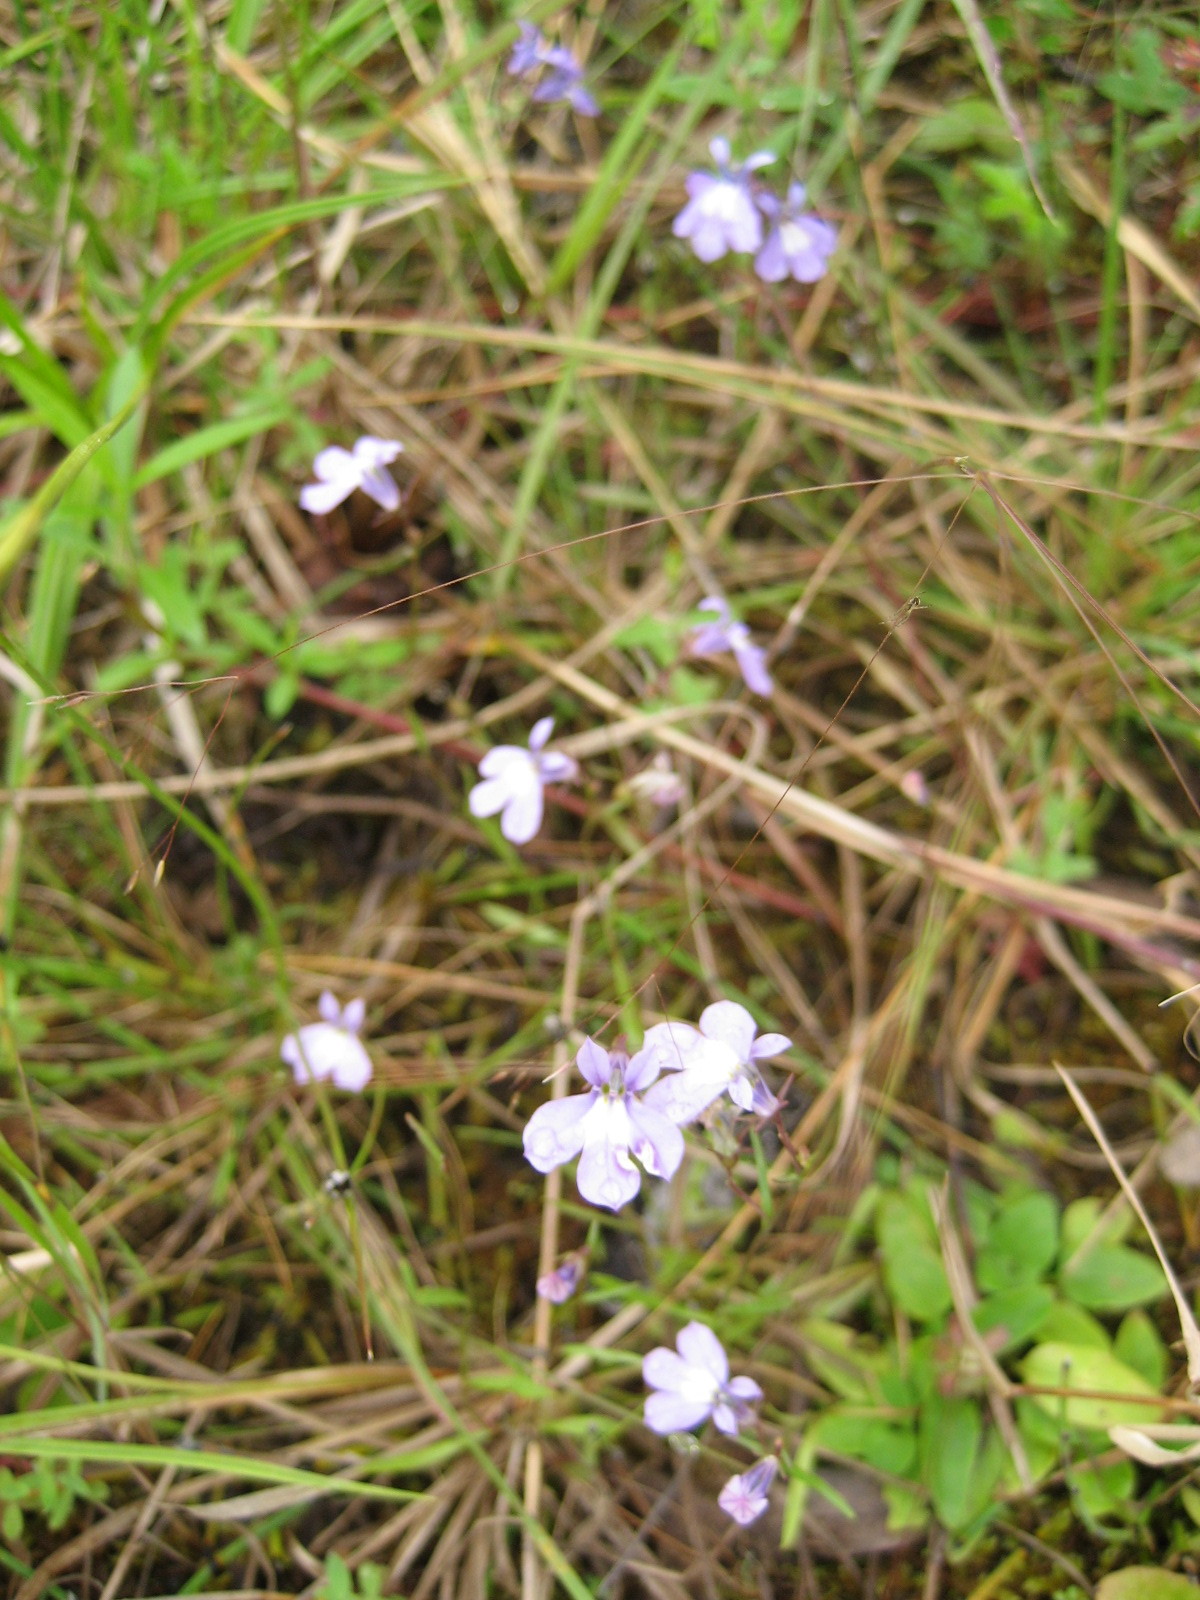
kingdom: Plantae
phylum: Tracheophyta
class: Magnoliopsida
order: Asterales
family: Campanulaceae
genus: Lobelia
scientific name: Lobelia kalmii
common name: Kalm's lobelia
